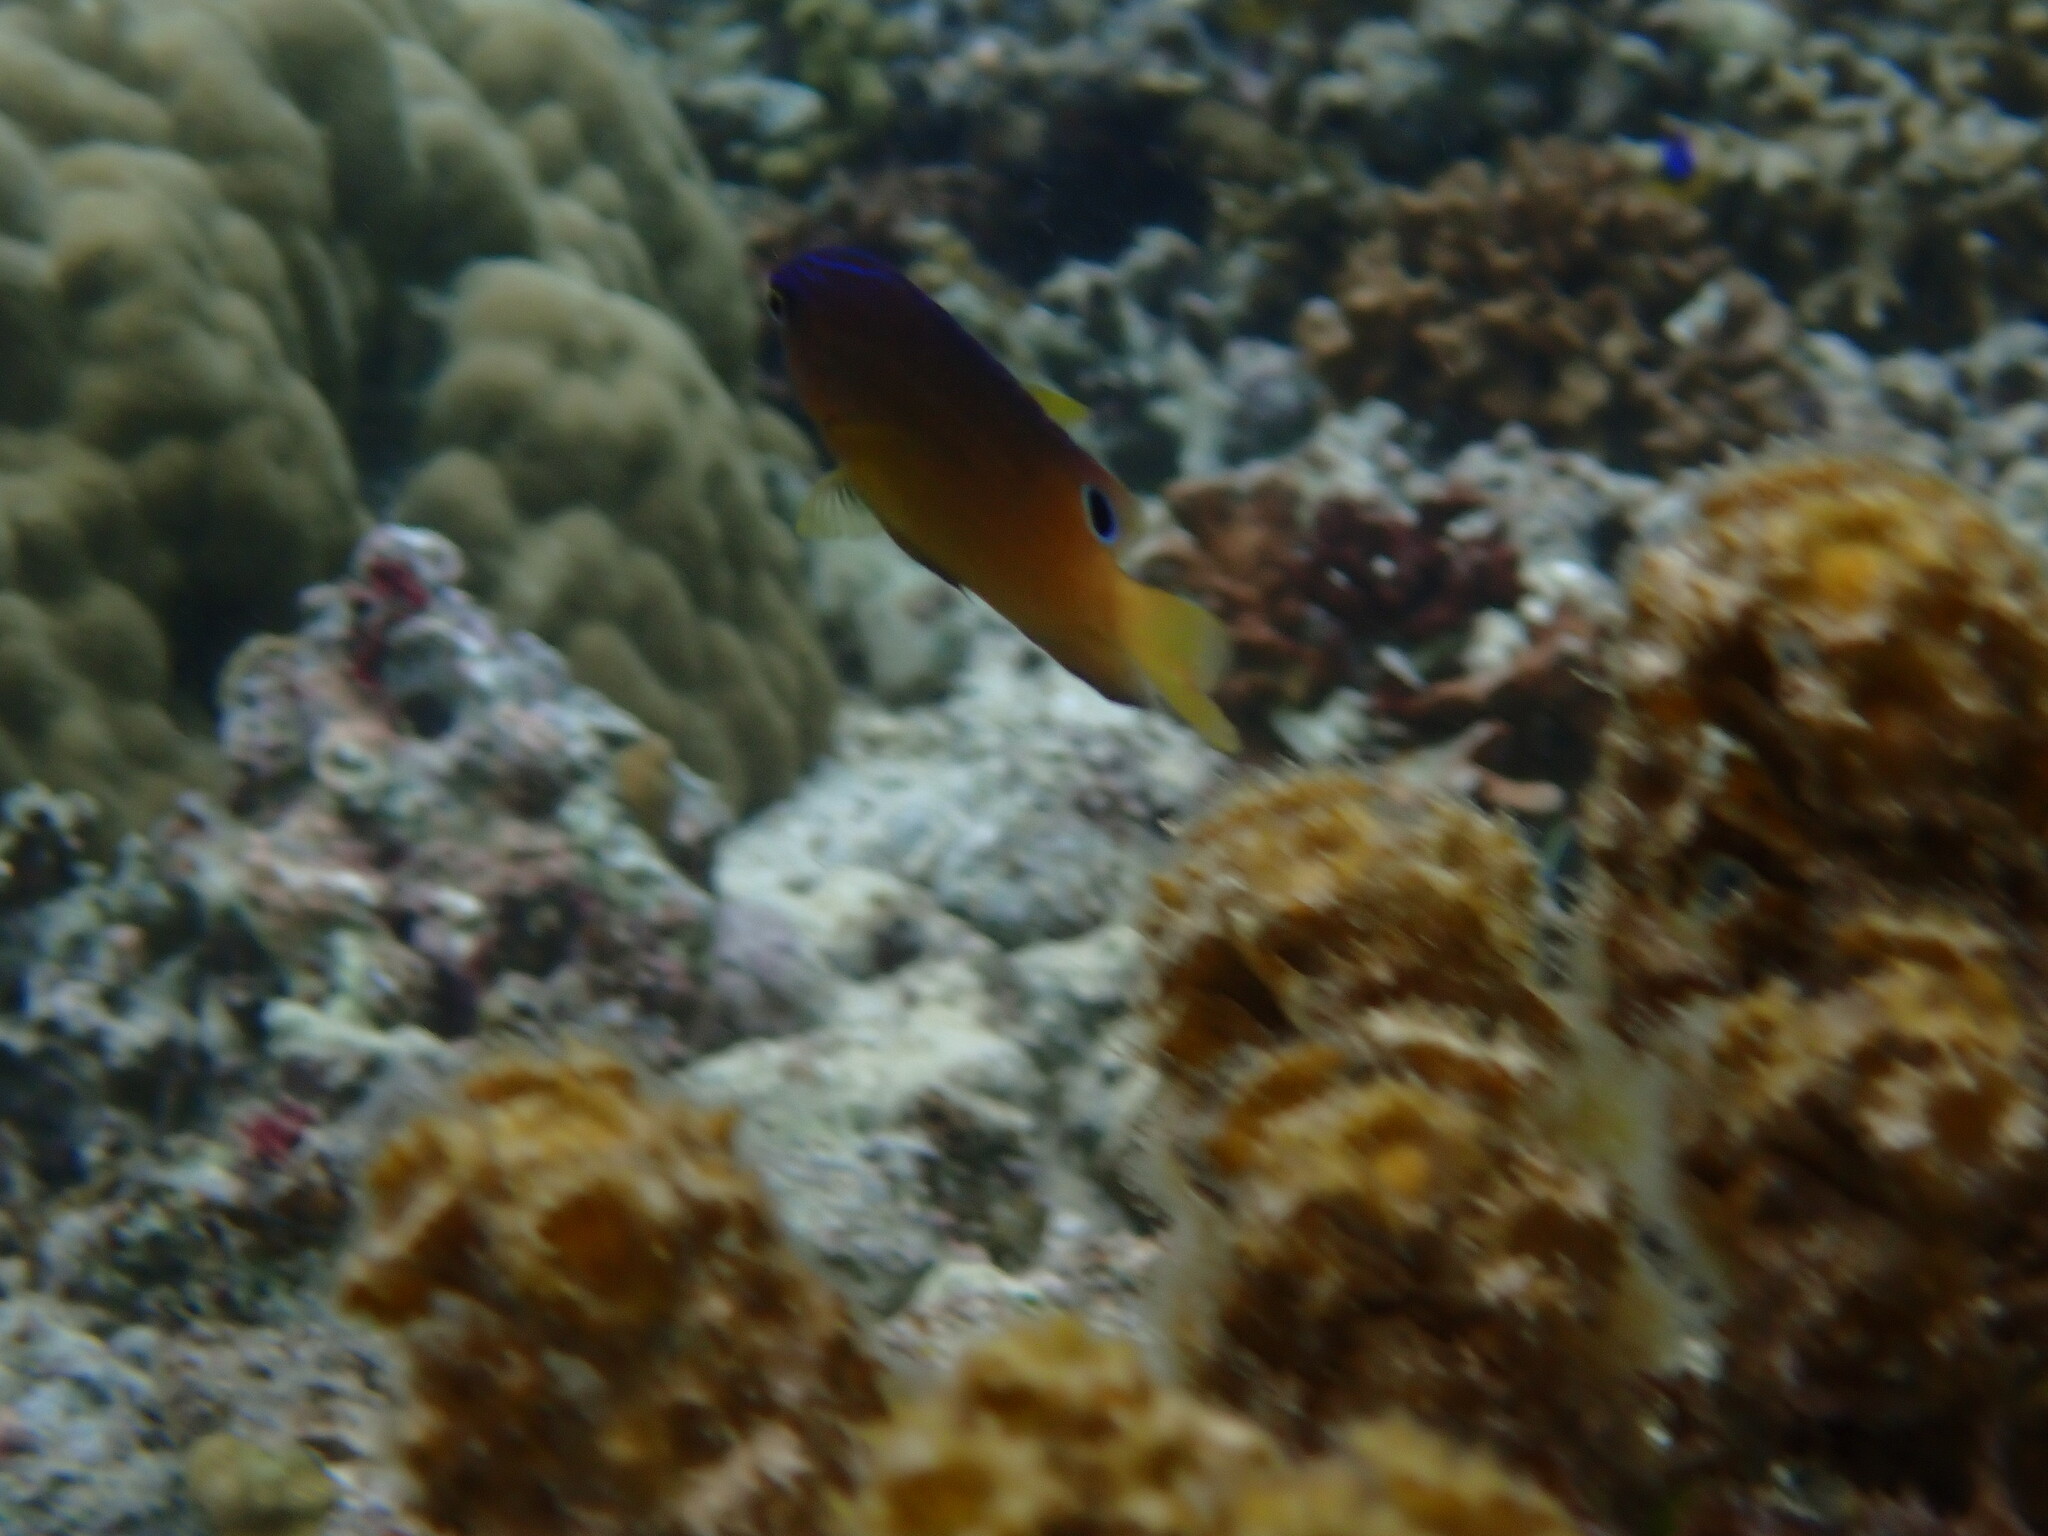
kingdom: Animalia
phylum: Chordata
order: Perciformes
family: Pomacentridae
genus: Pomacentrus
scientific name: Pomacentrus vaiuli
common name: Princess damsel
